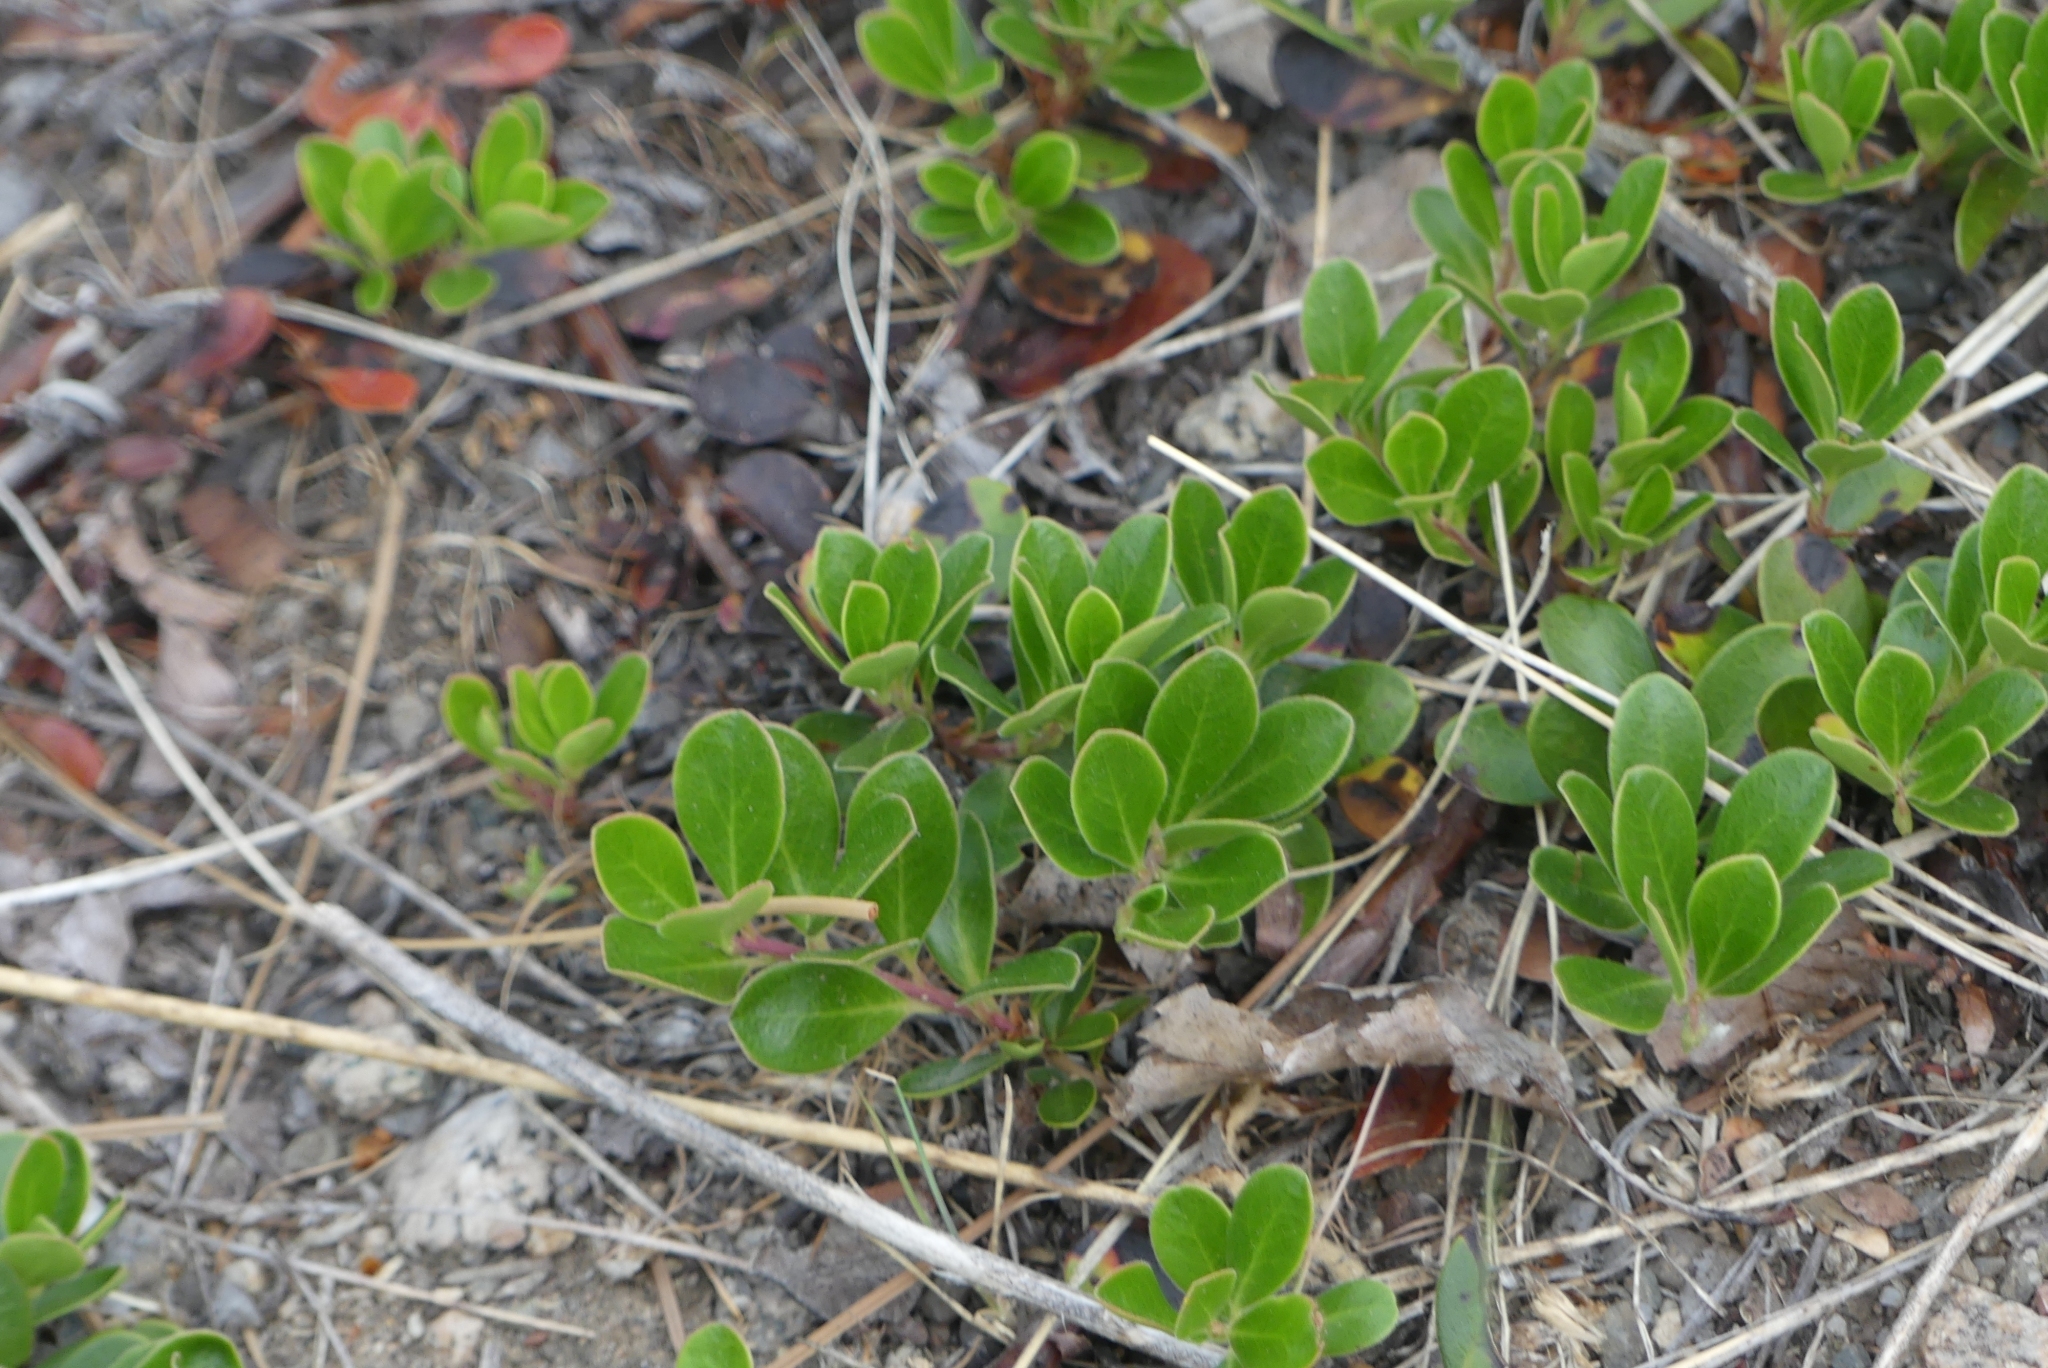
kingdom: Plantae
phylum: Tracheophyta
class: Magnoliopsida
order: Ericales
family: Ericaceae
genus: Arctostaphylos
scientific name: Arctostaphylos uva-ursi
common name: Bearberry
